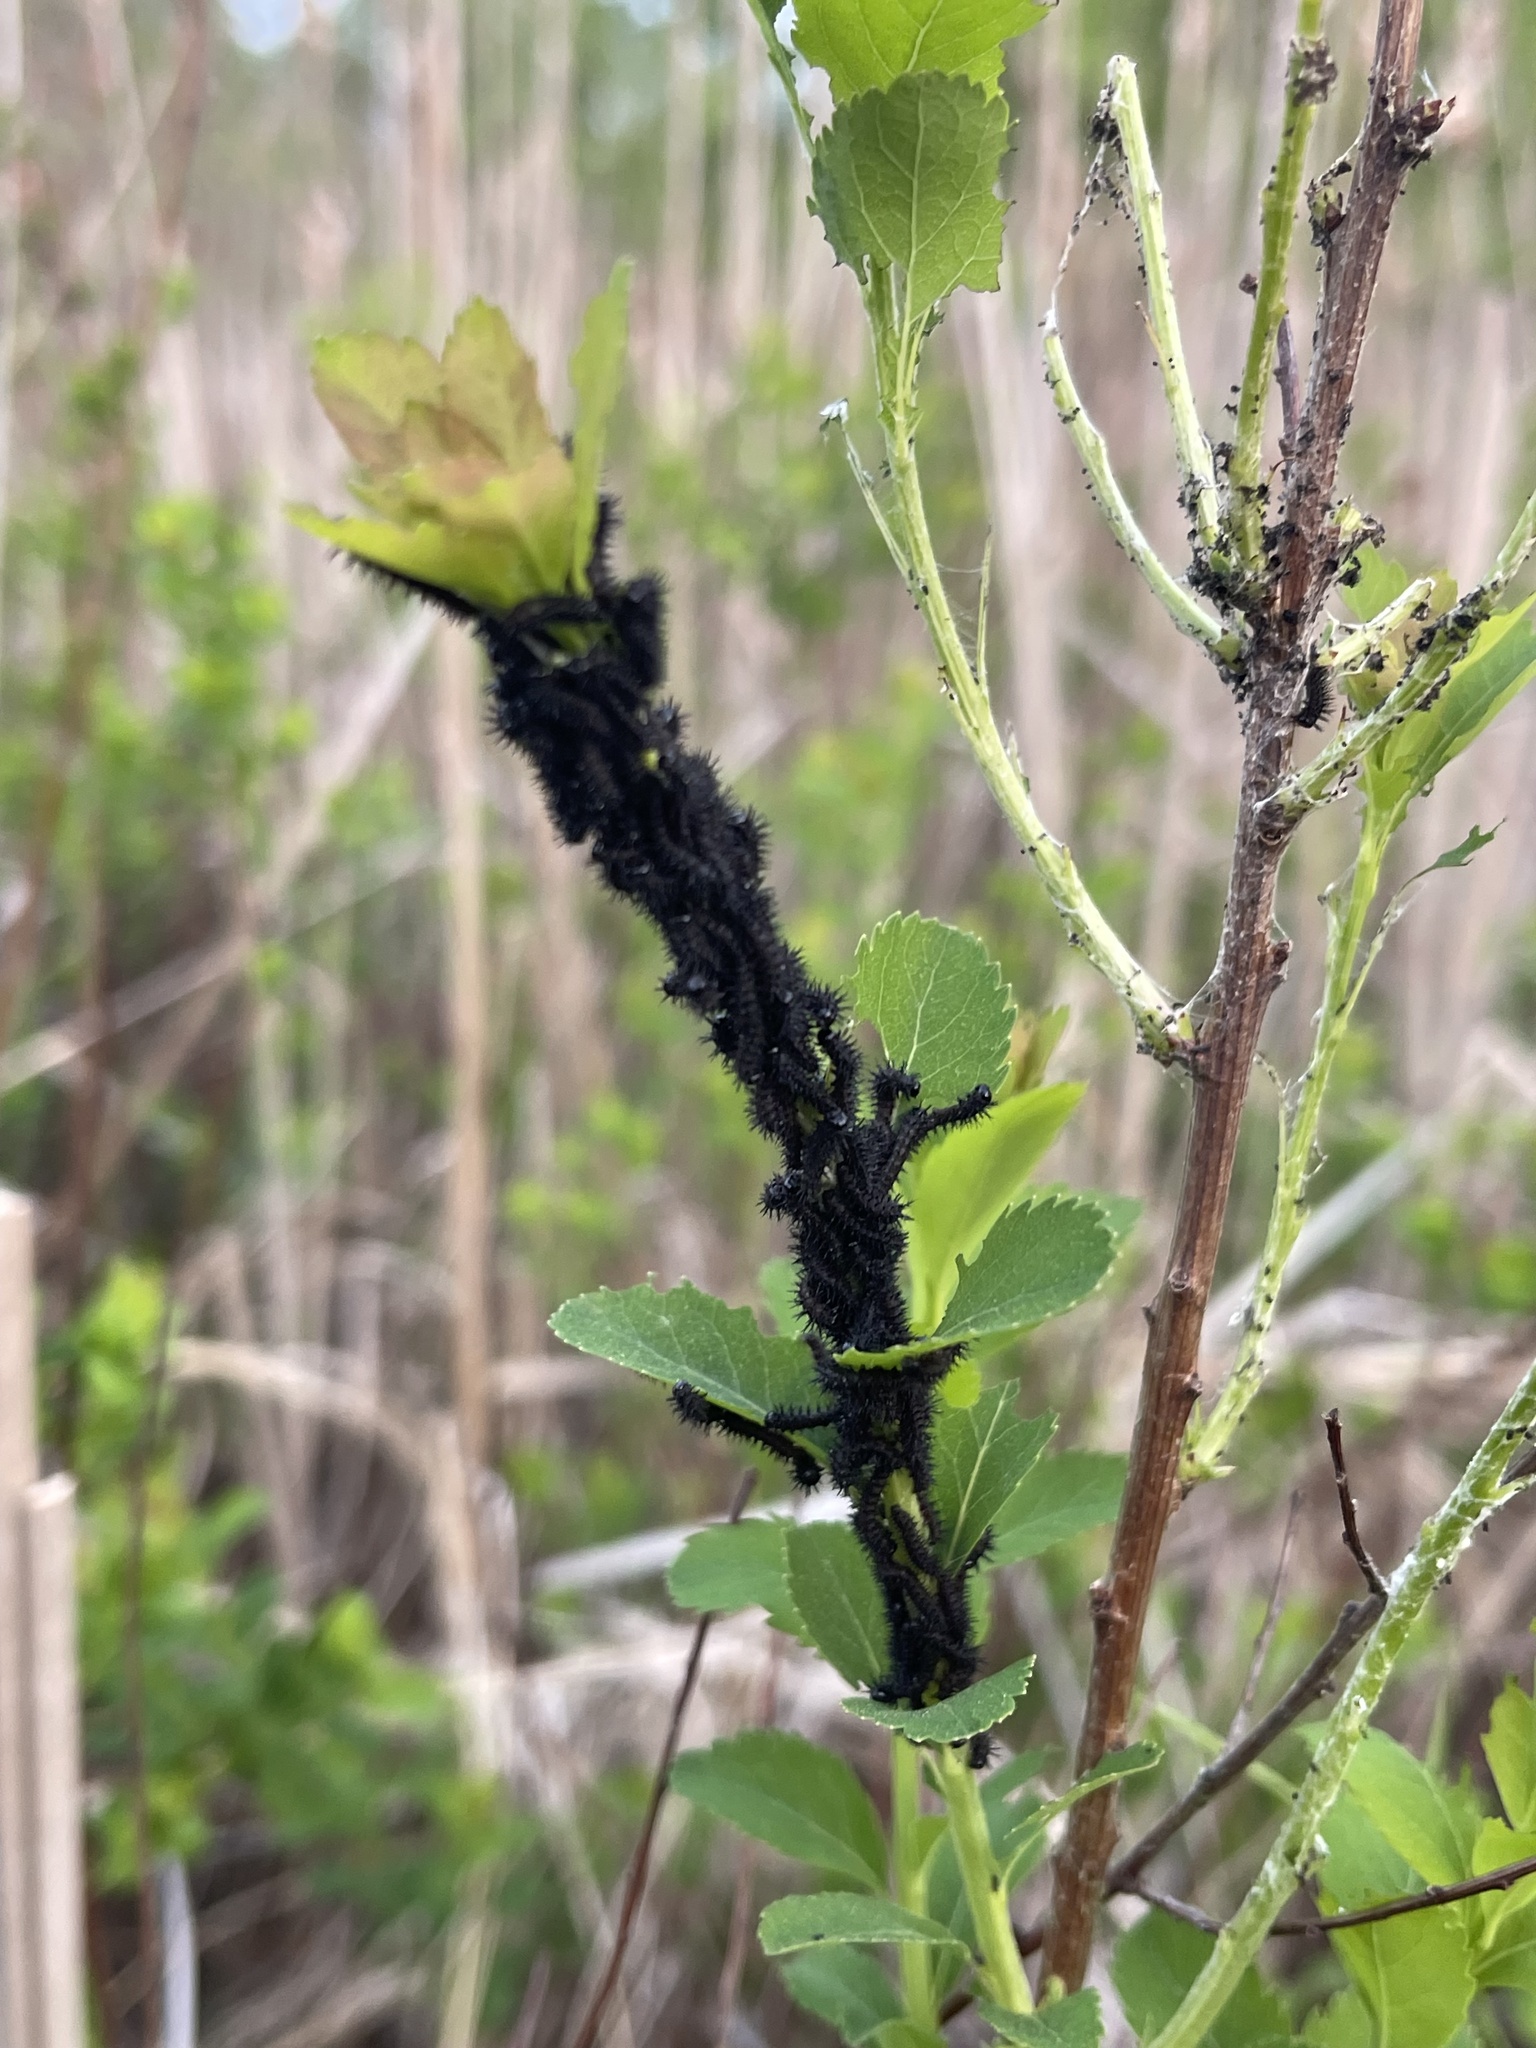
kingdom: Animalia
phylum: Arthropoda
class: Insecta
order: Lepidoptera
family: Saturniidae
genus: Hemileuca
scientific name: Hemileuca lucina
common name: New england buckmoth
